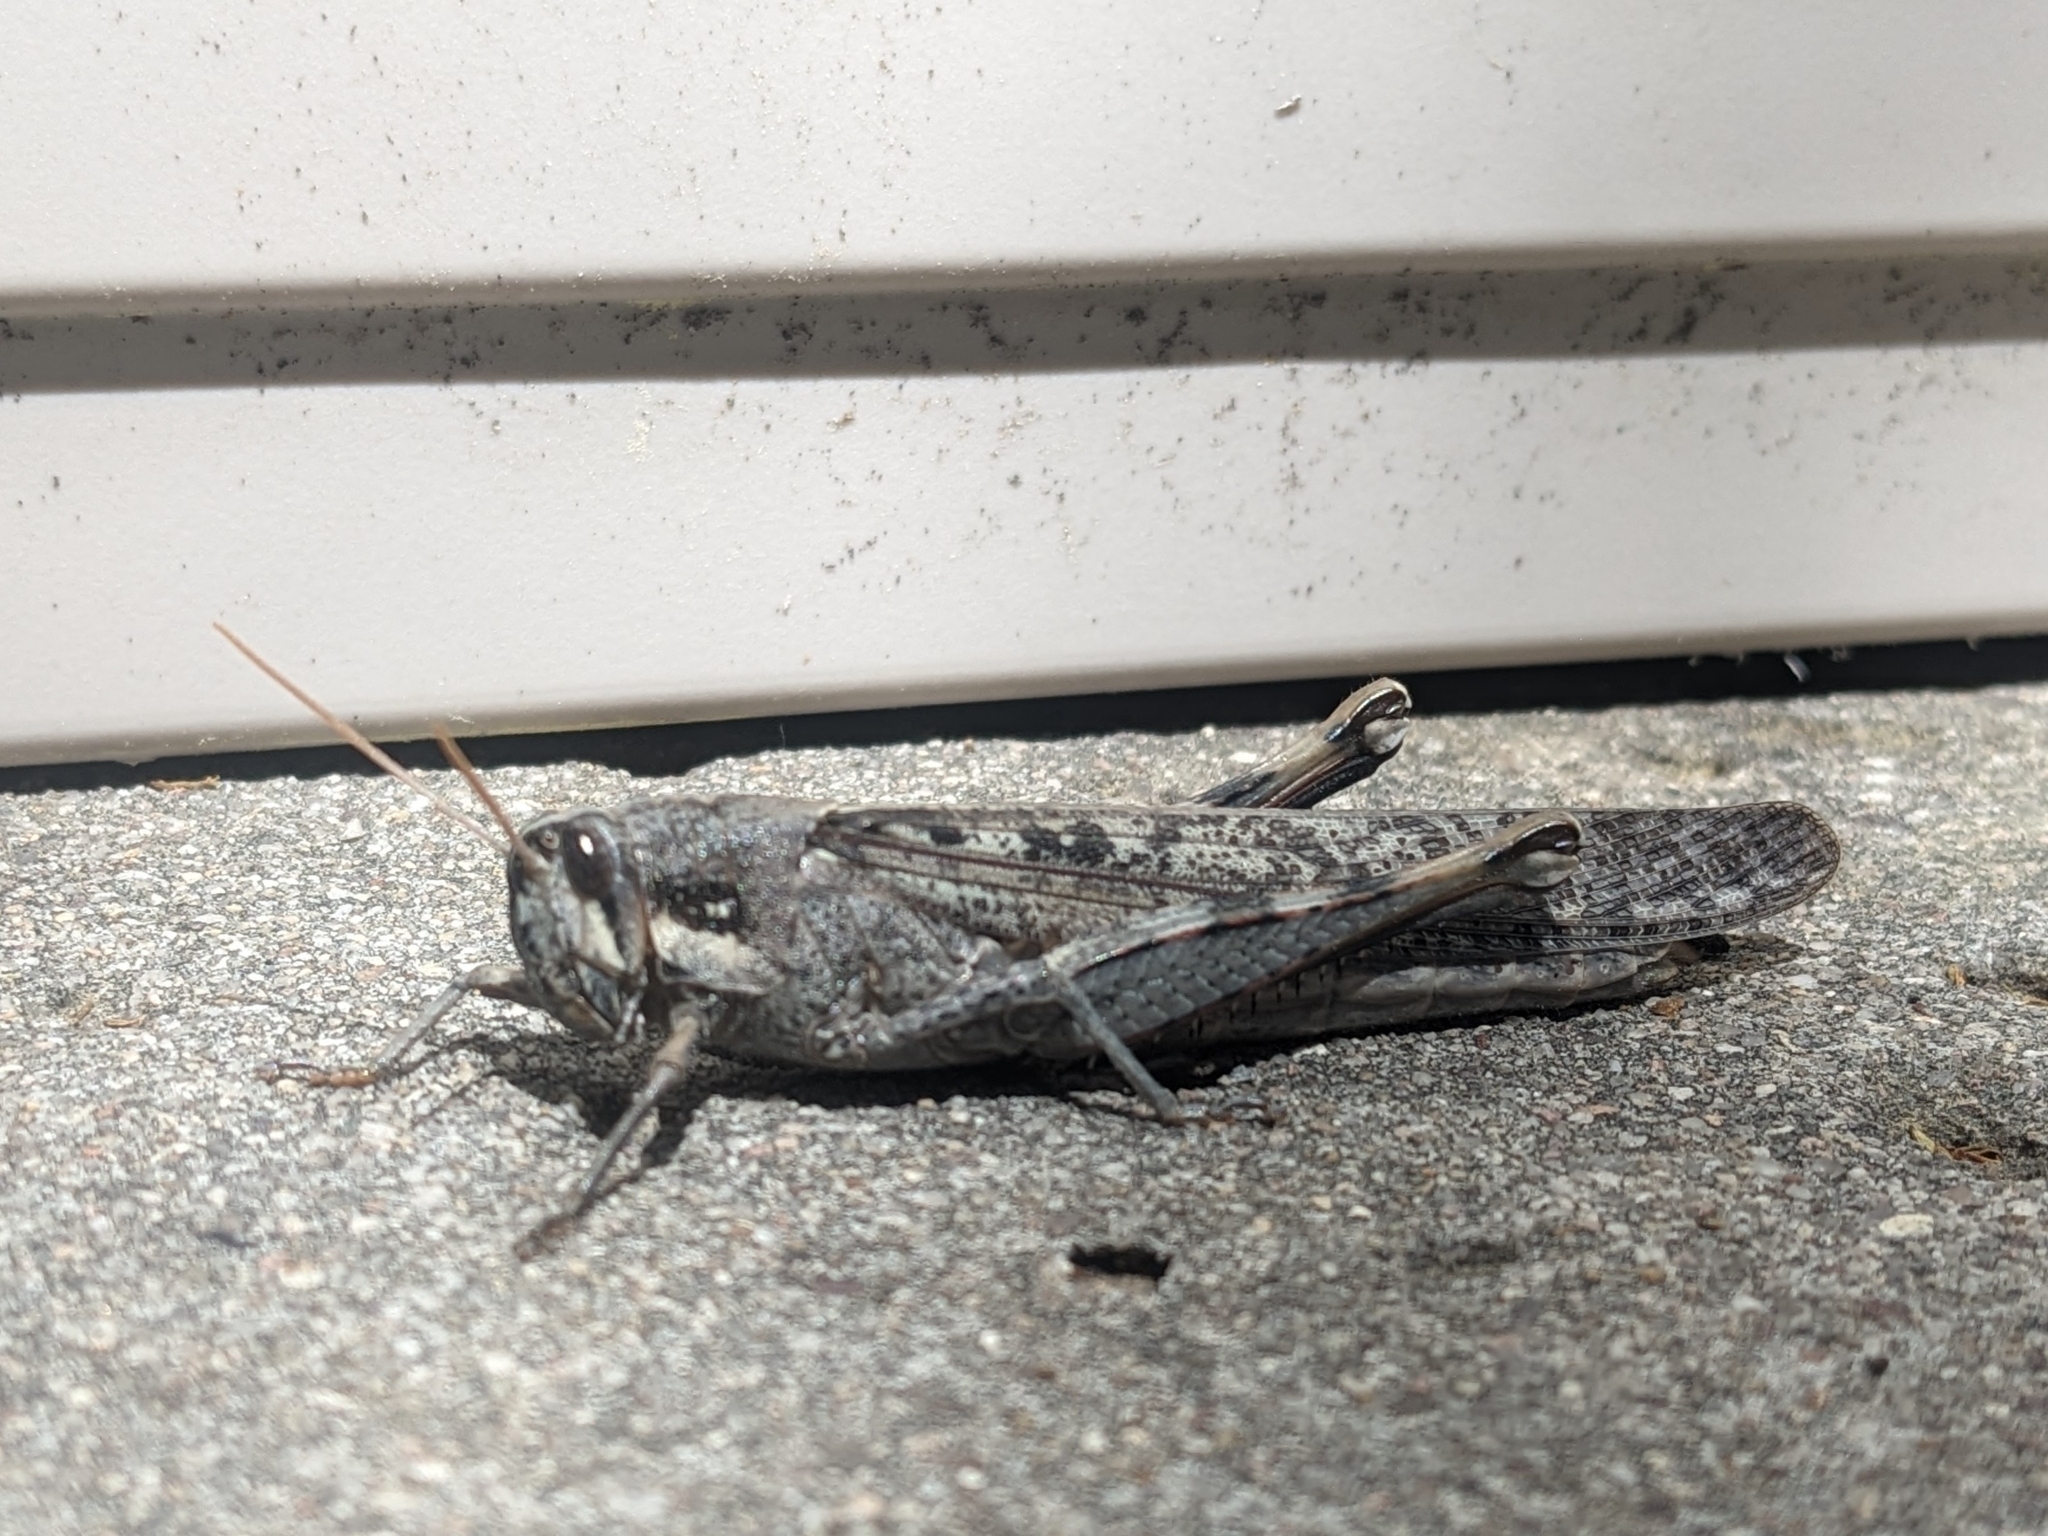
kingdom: Animalia
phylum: Arthropoda
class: Insecta
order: Orthoptera
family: Acrididae
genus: Schistocerca
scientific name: Schistocerca nitens
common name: Vagrant grasshopper
